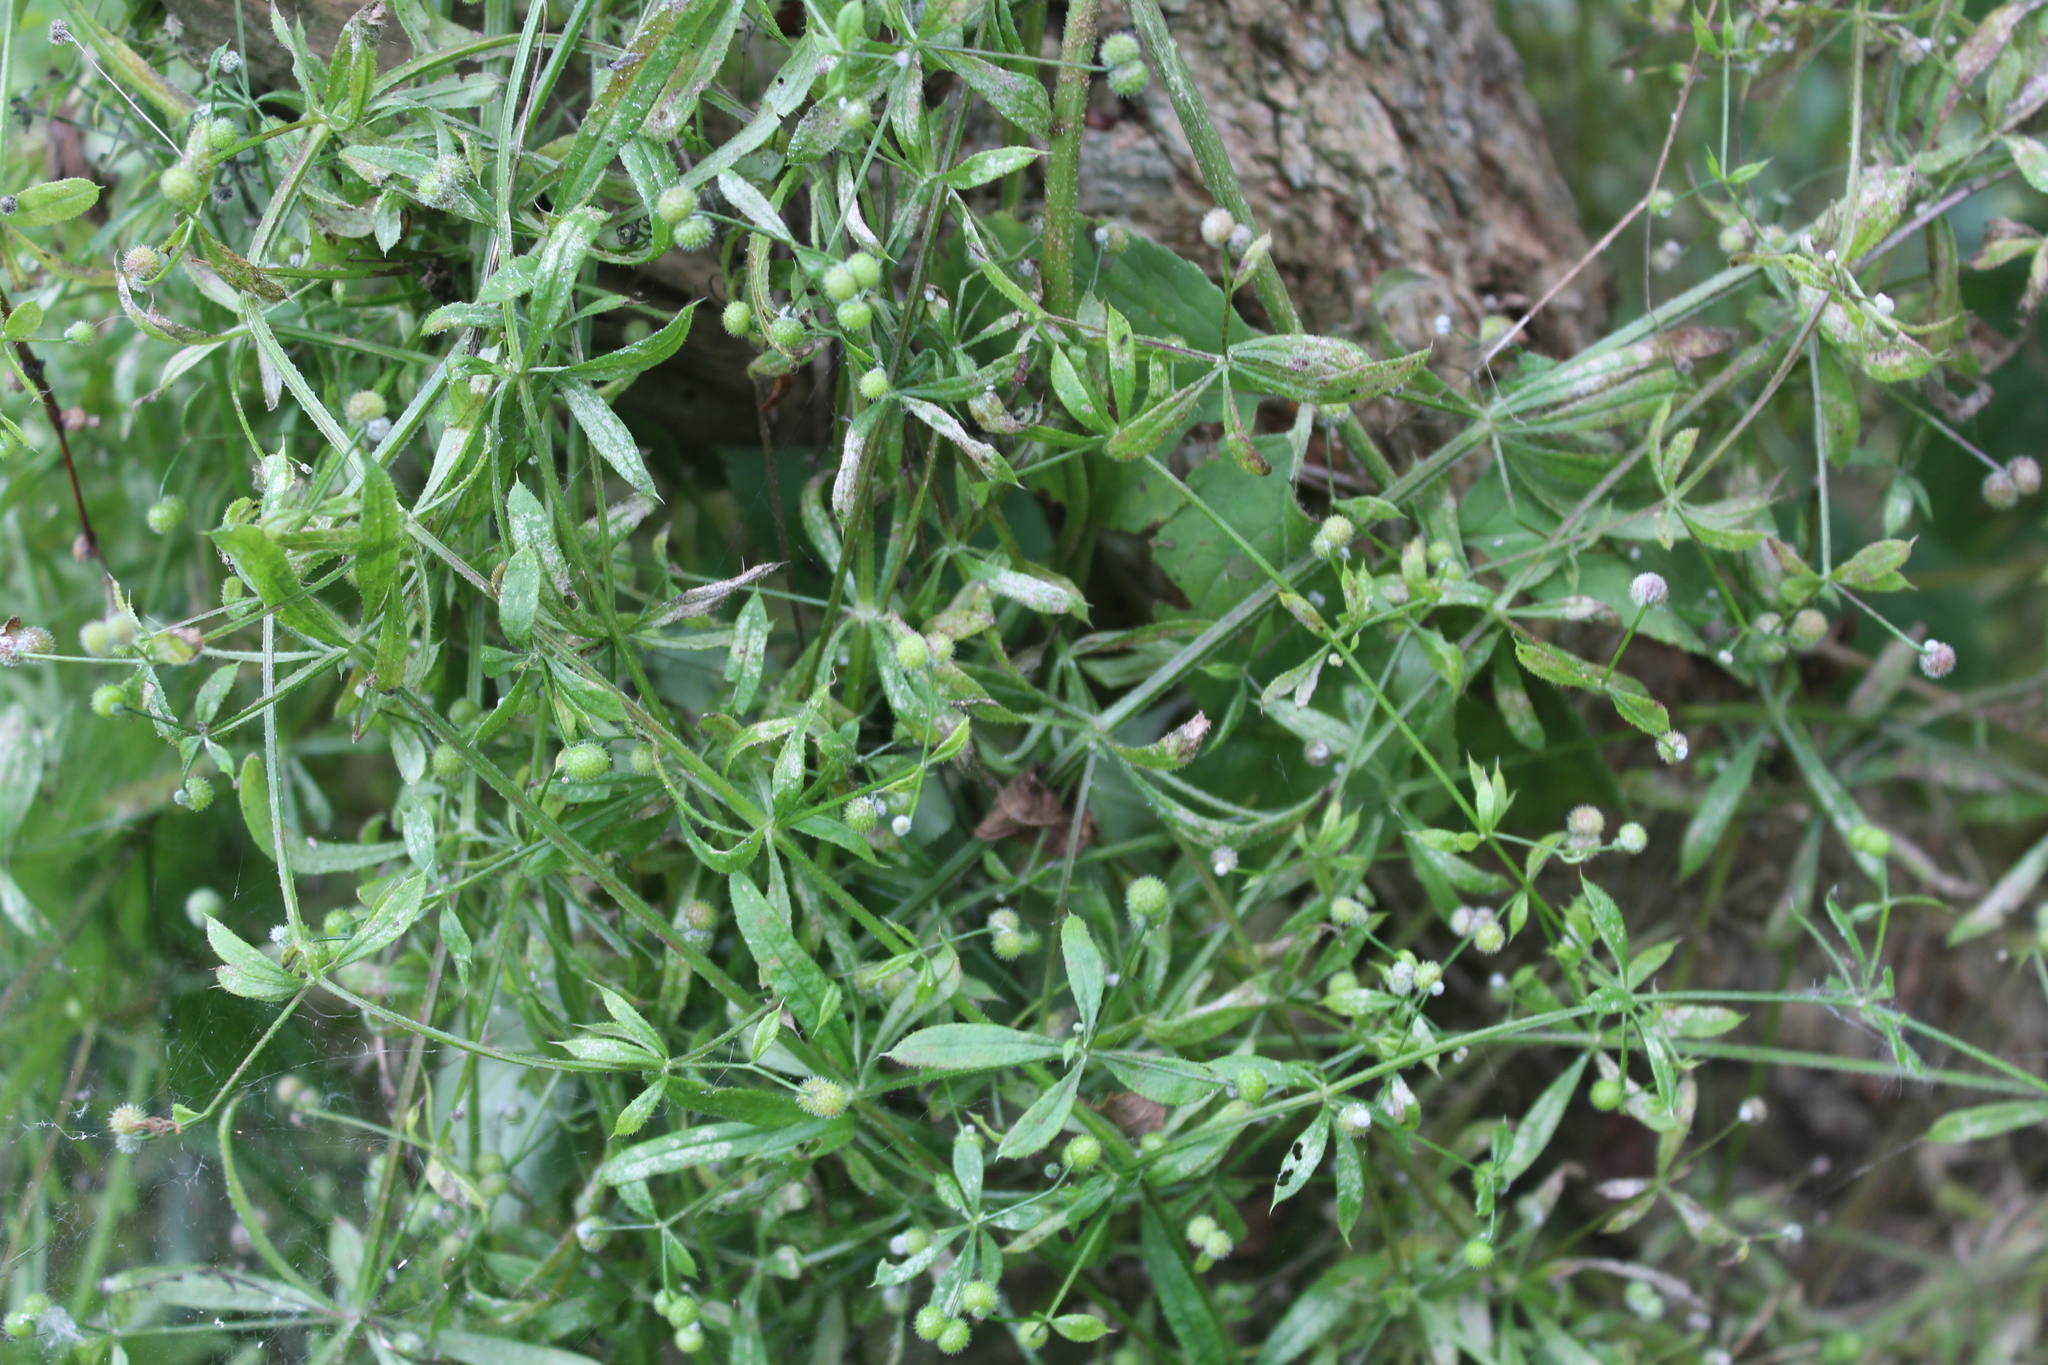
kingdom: Plantae
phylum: Tracheophyta
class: Magnoliopsida
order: Gentianales
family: Rubiaceae
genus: Galium
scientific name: Galium aparine
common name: Cleavers
